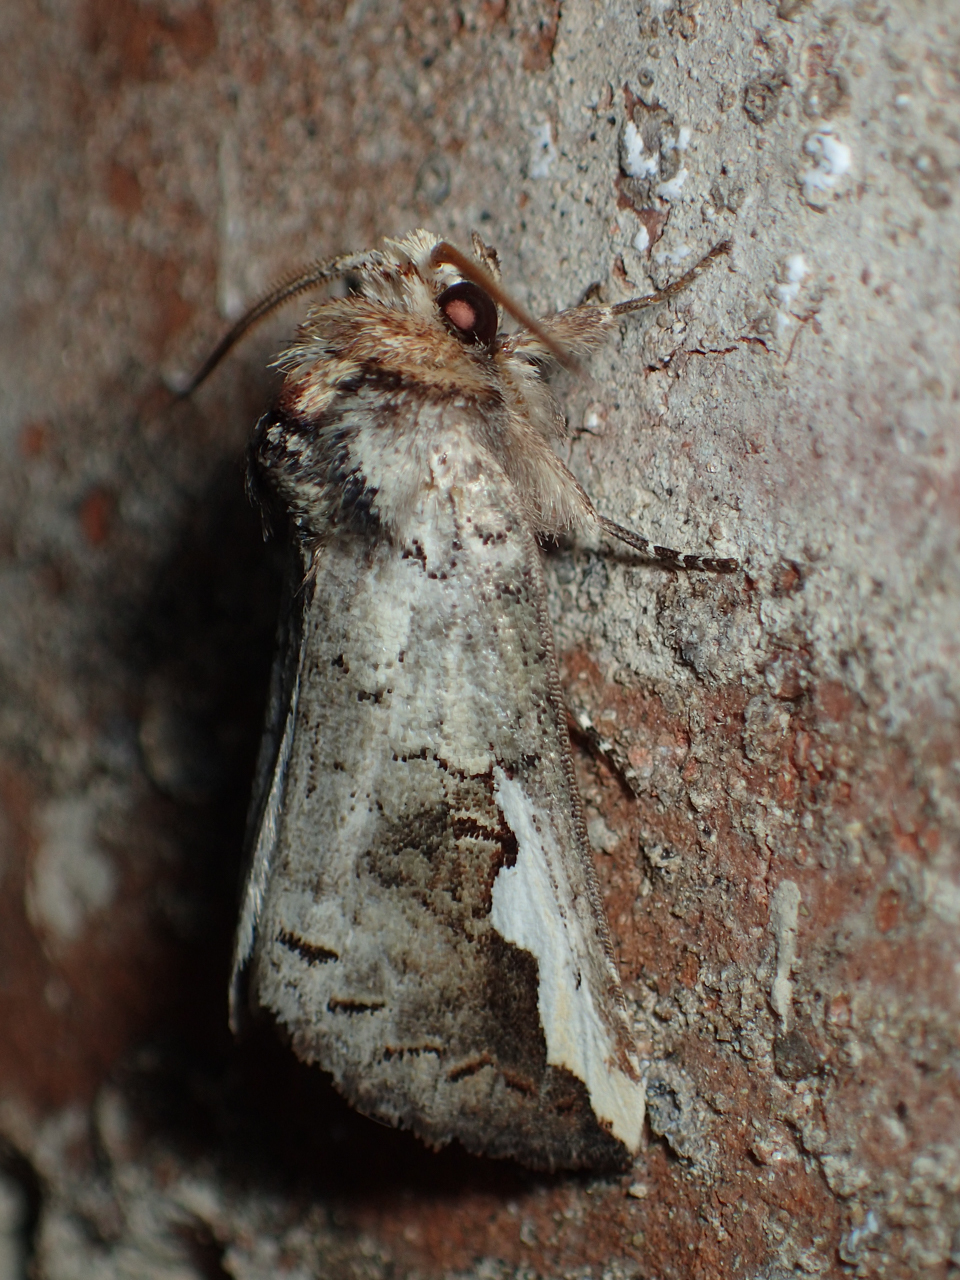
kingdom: Animalia
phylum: Arthropoda
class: Insecta
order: Lepidoptera
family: Notodontidae
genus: Symmerista
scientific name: Symmerista
